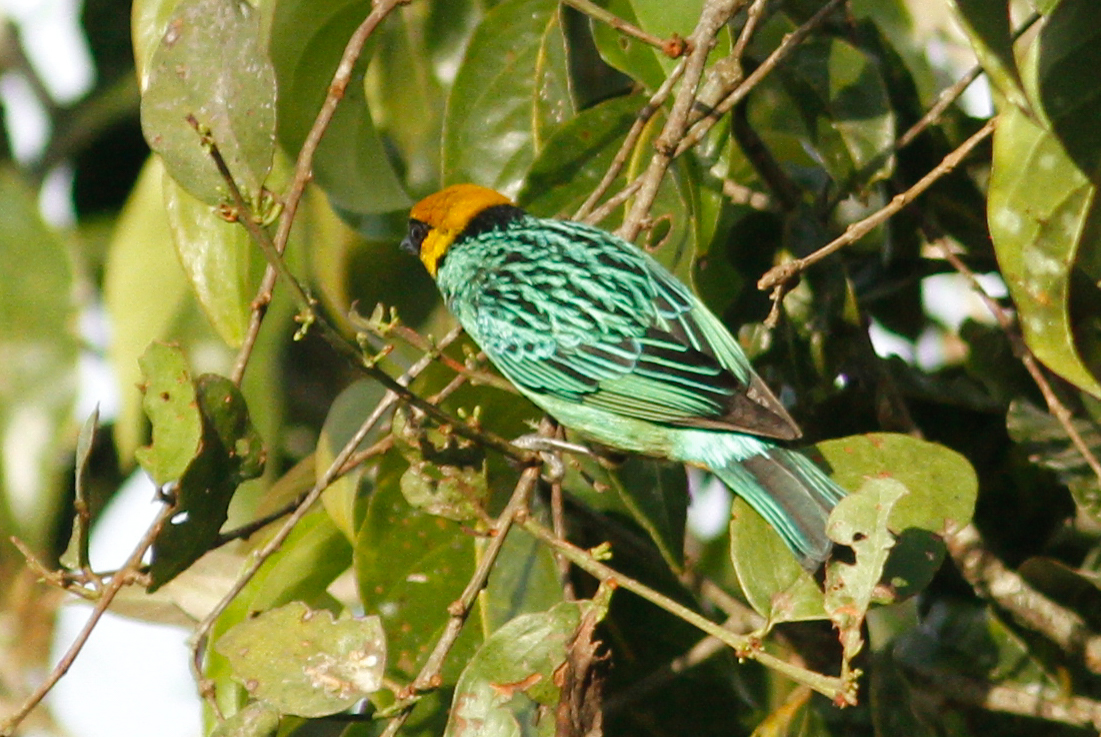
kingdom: Animalia
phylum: Chordata
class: Aves
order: Passeriformes
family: Thraupidae
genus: Tangara
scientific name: Tangara xanthocephala
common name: Saffron-crowned tanager
